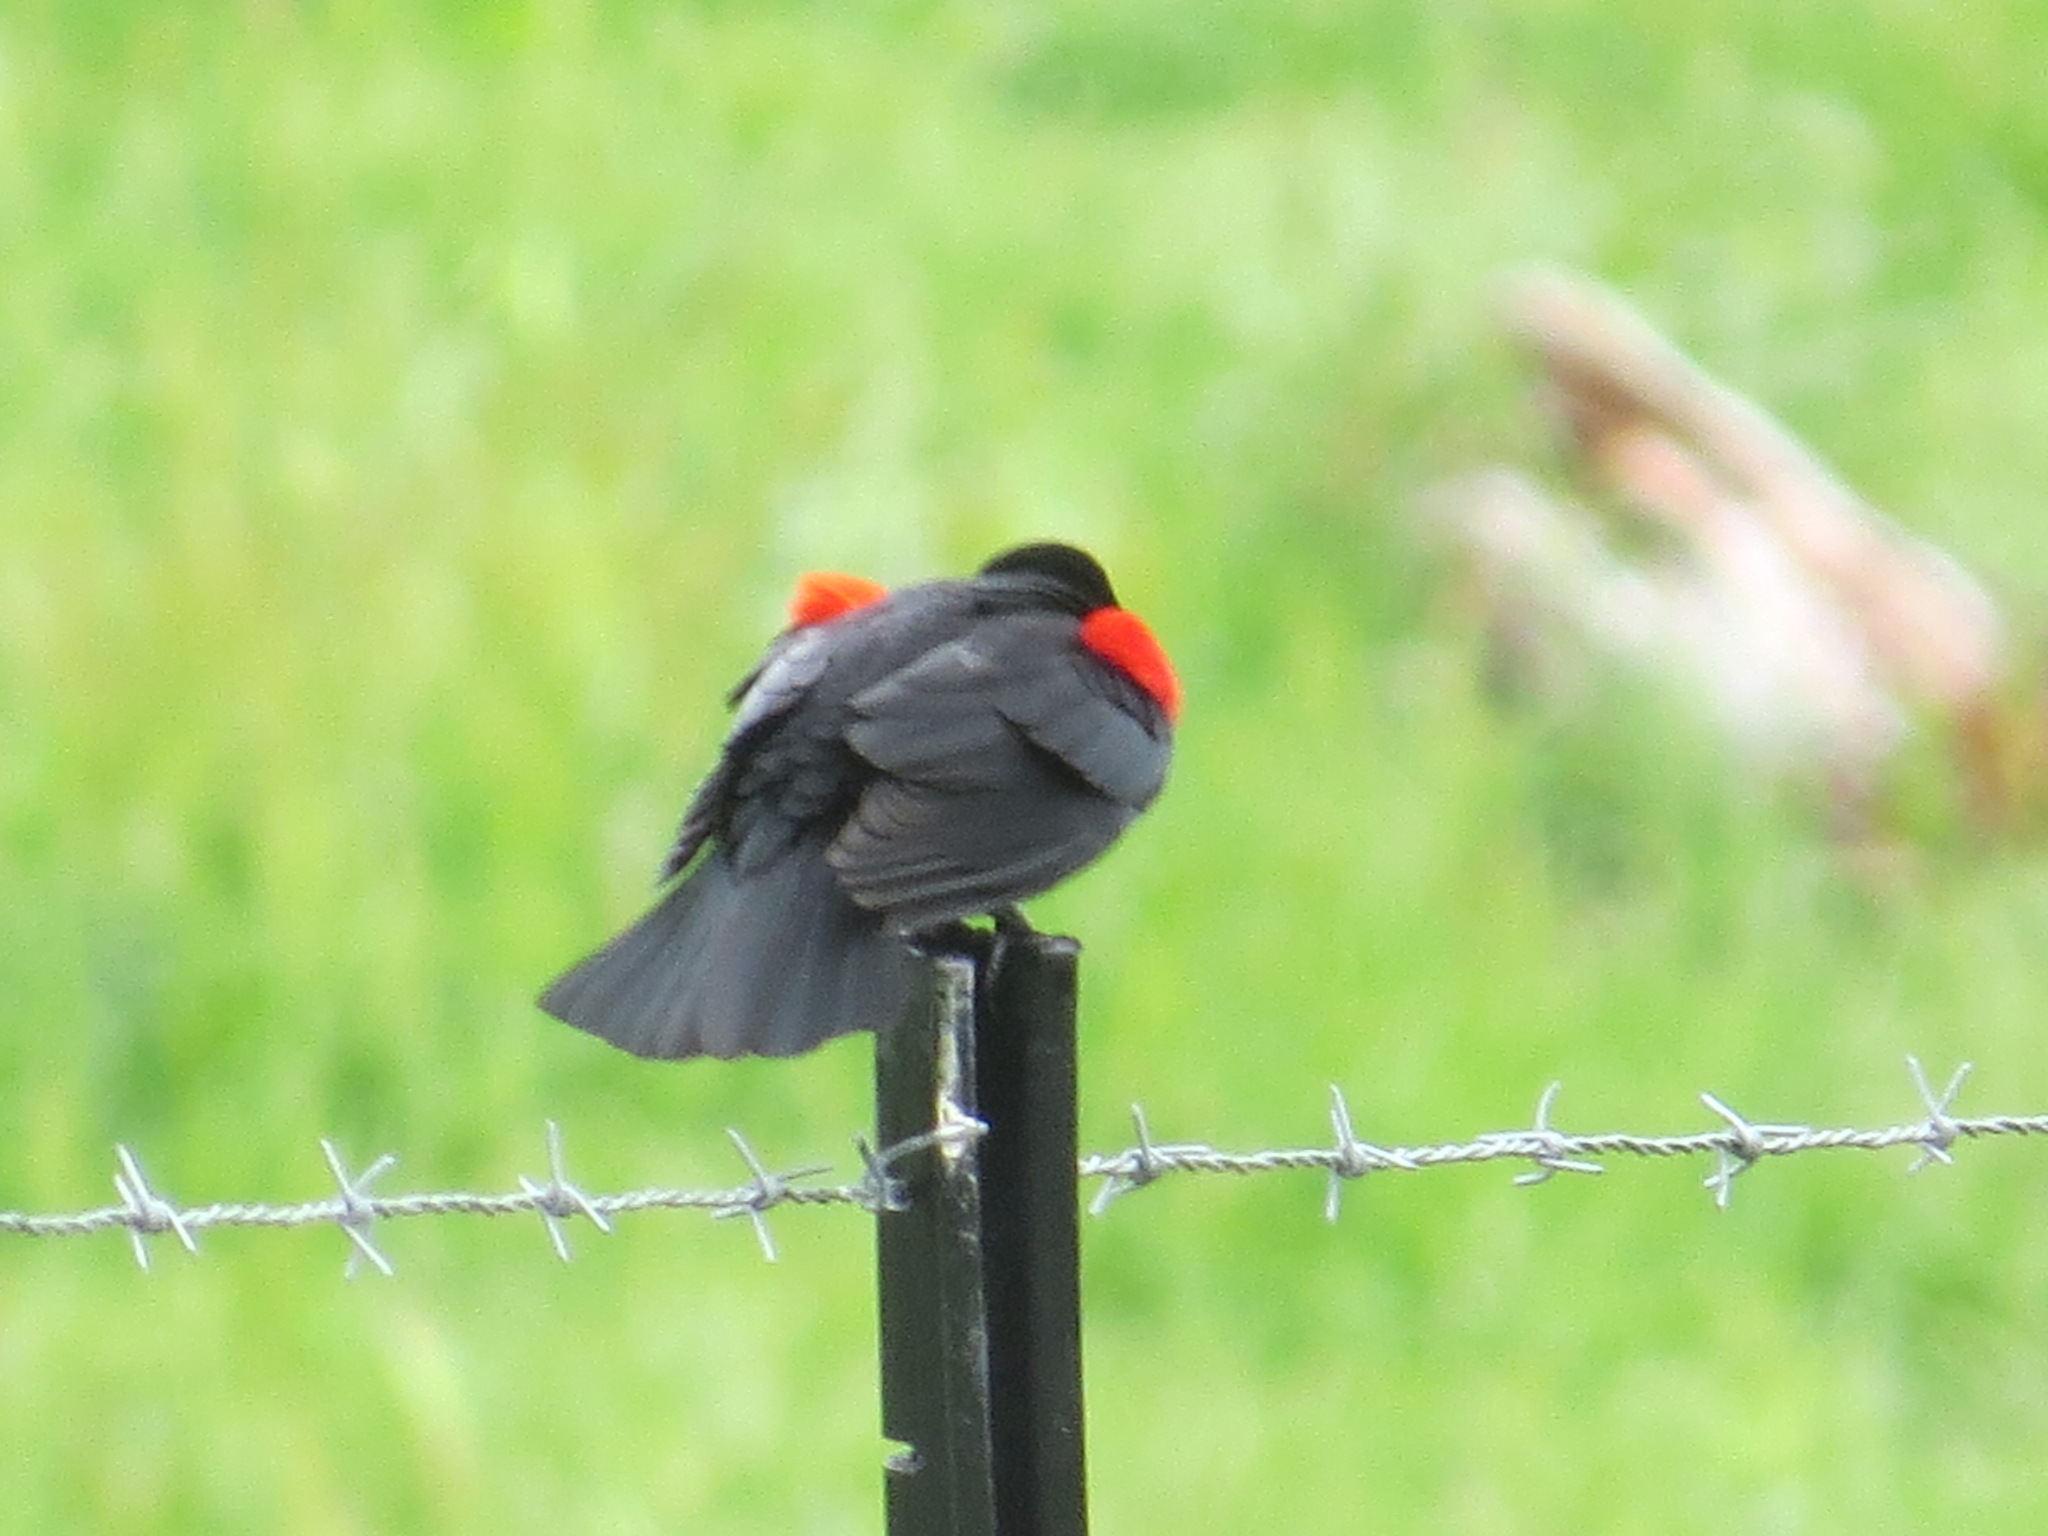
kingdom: Animalia
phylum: Chordata
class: Aves
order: Passeriformes
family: Icteridae
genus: Agelaius
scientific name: Agelaius phoeniceus
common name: Red-winged blackbird
